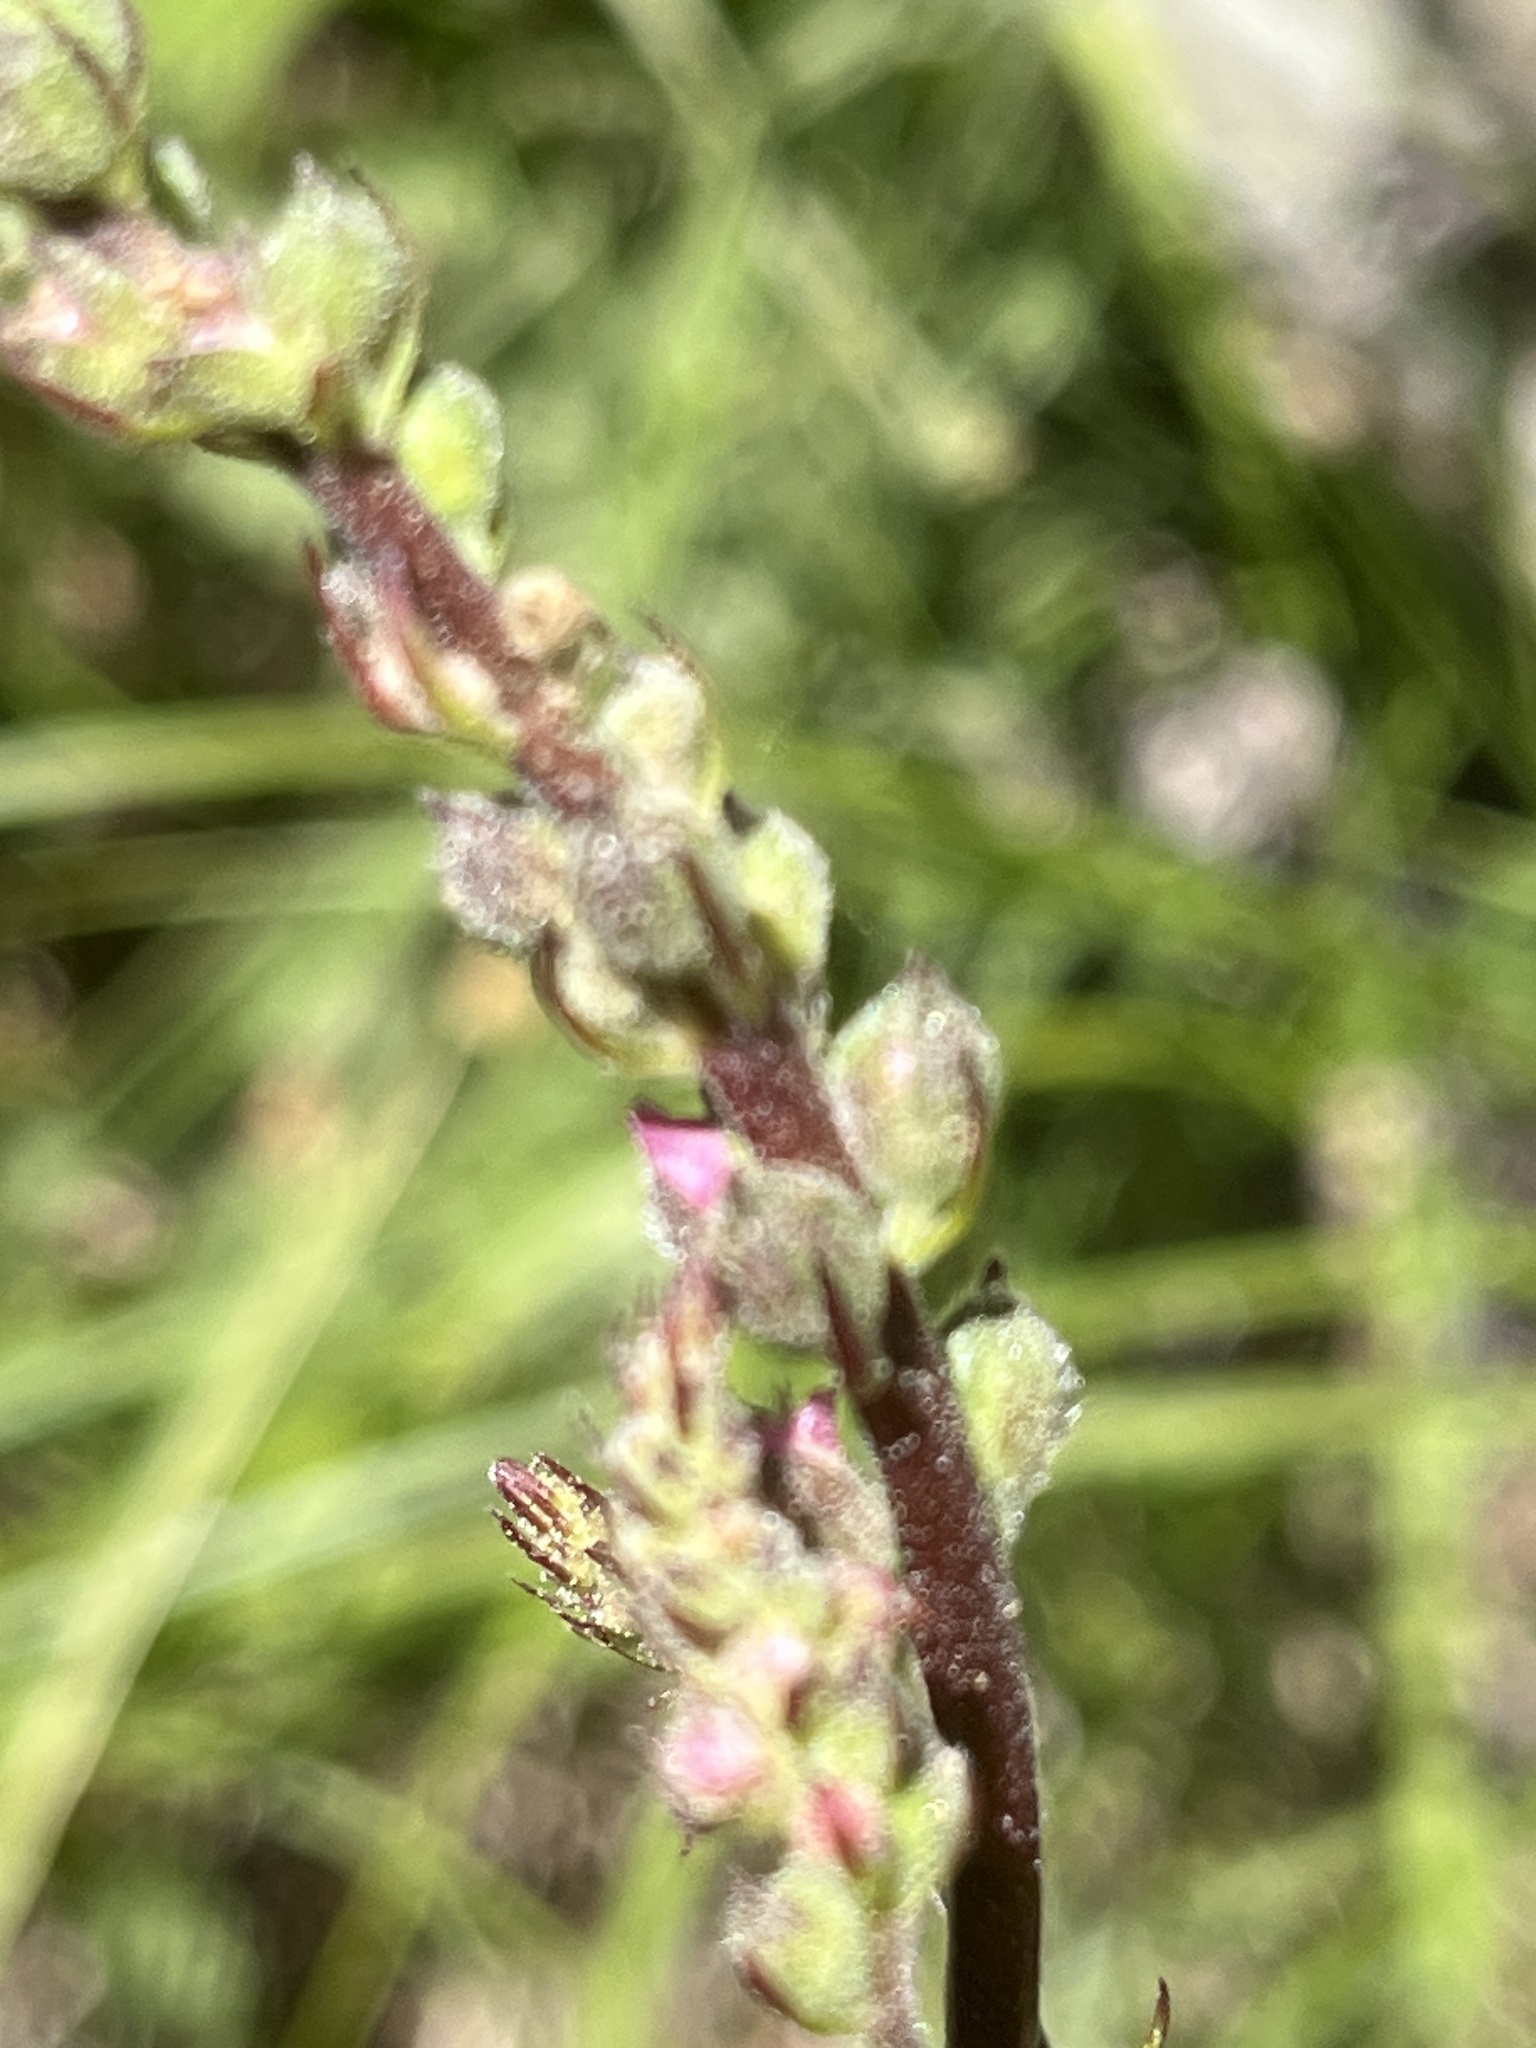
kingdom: Plantae
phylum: Tracheophyta
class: Magnoliopsida
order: Malvales
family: Malvaceae
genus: Sidalcea
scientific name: Sidalcea oregana
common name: Oregon checker-mallow
